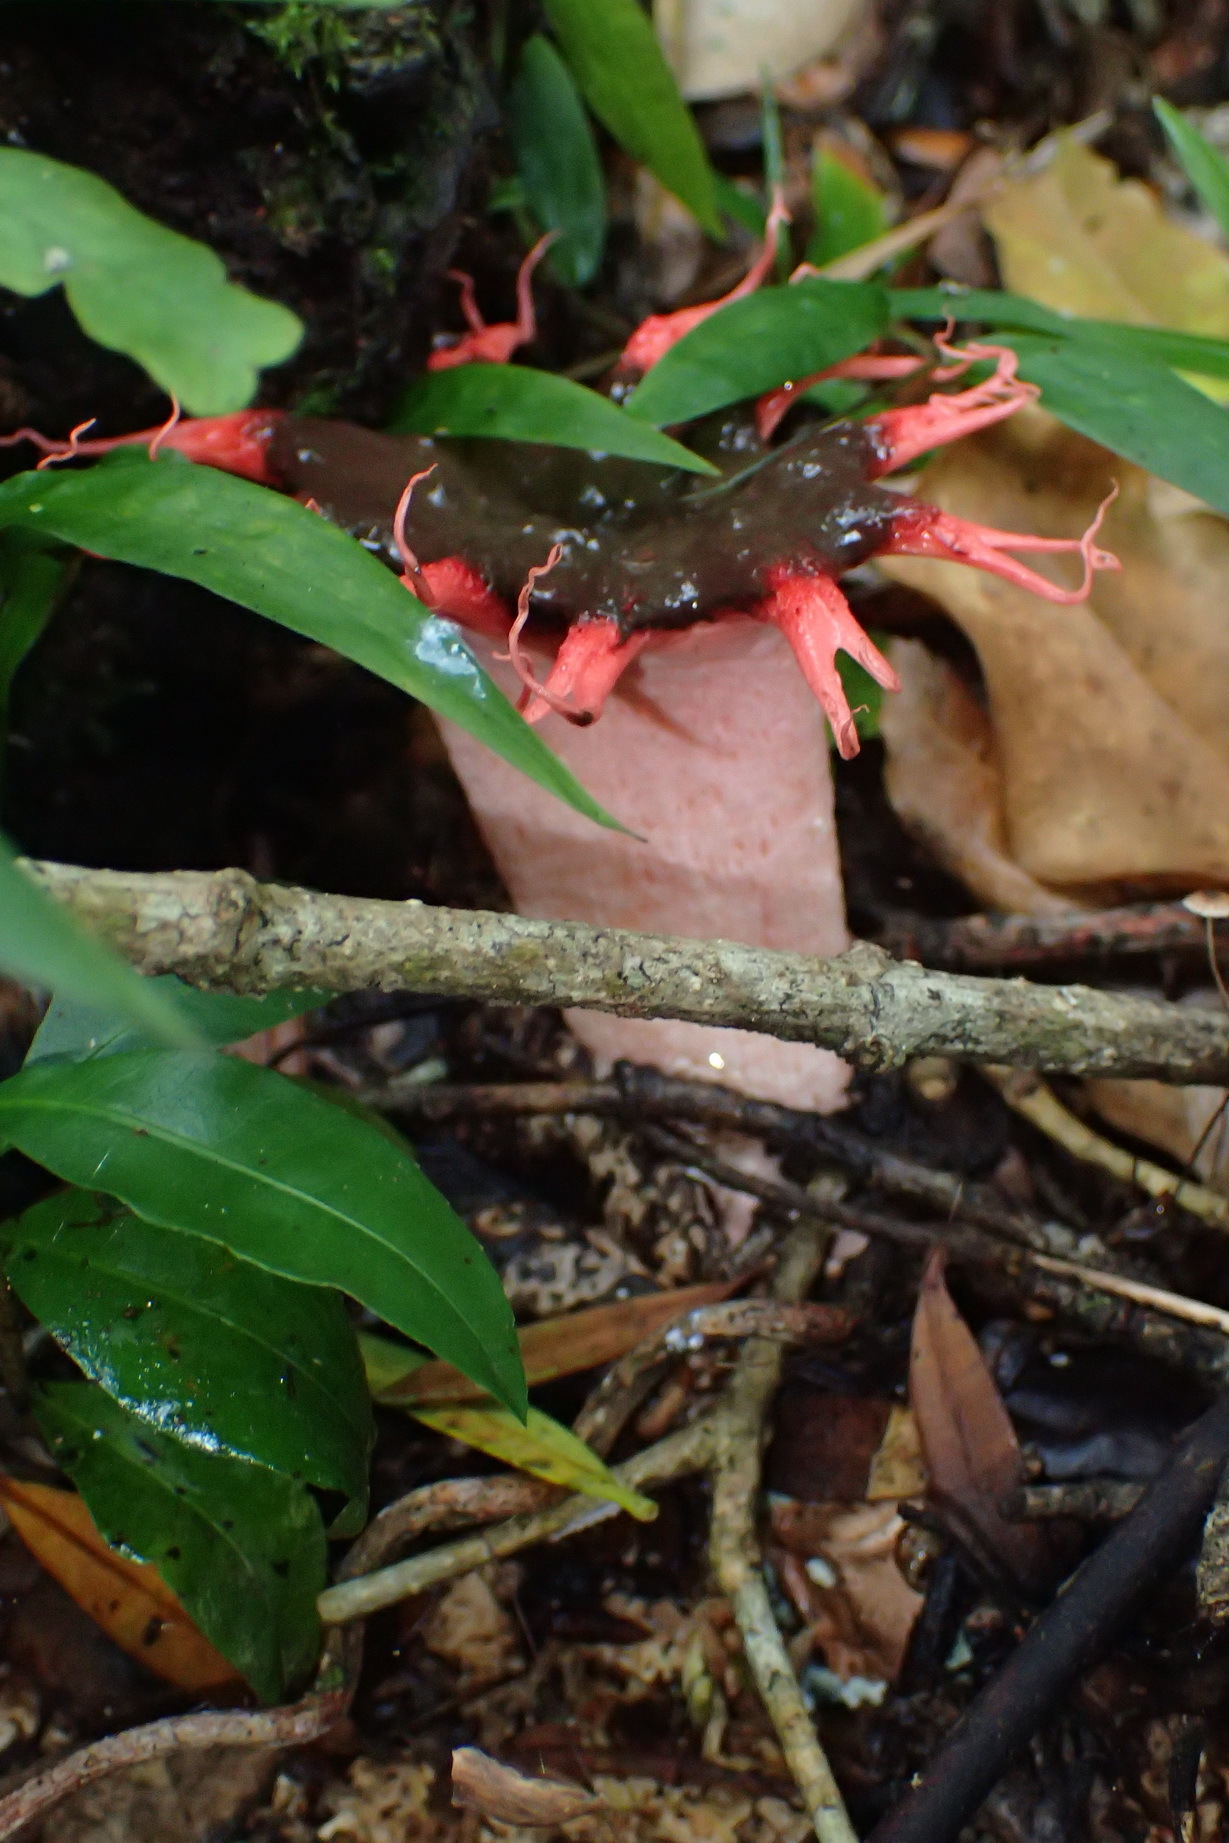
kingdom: Fungi
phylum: Basidiomycota
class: Agaricomycetes
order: Phallales
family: Phallaceae
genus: Aseroe
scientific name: Aseroe rubra
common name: Starfish fungus
